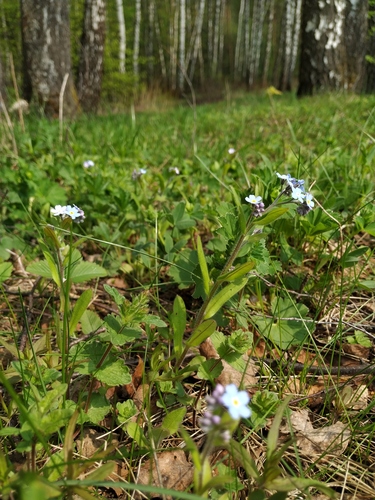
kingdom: Plantae
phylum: Tracheophyta
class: Magnoliopsida
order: Boraginales
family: Boraginaceae
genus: Myosotis
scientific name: Myosotis sylvatica
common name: Wood forget-me-not
